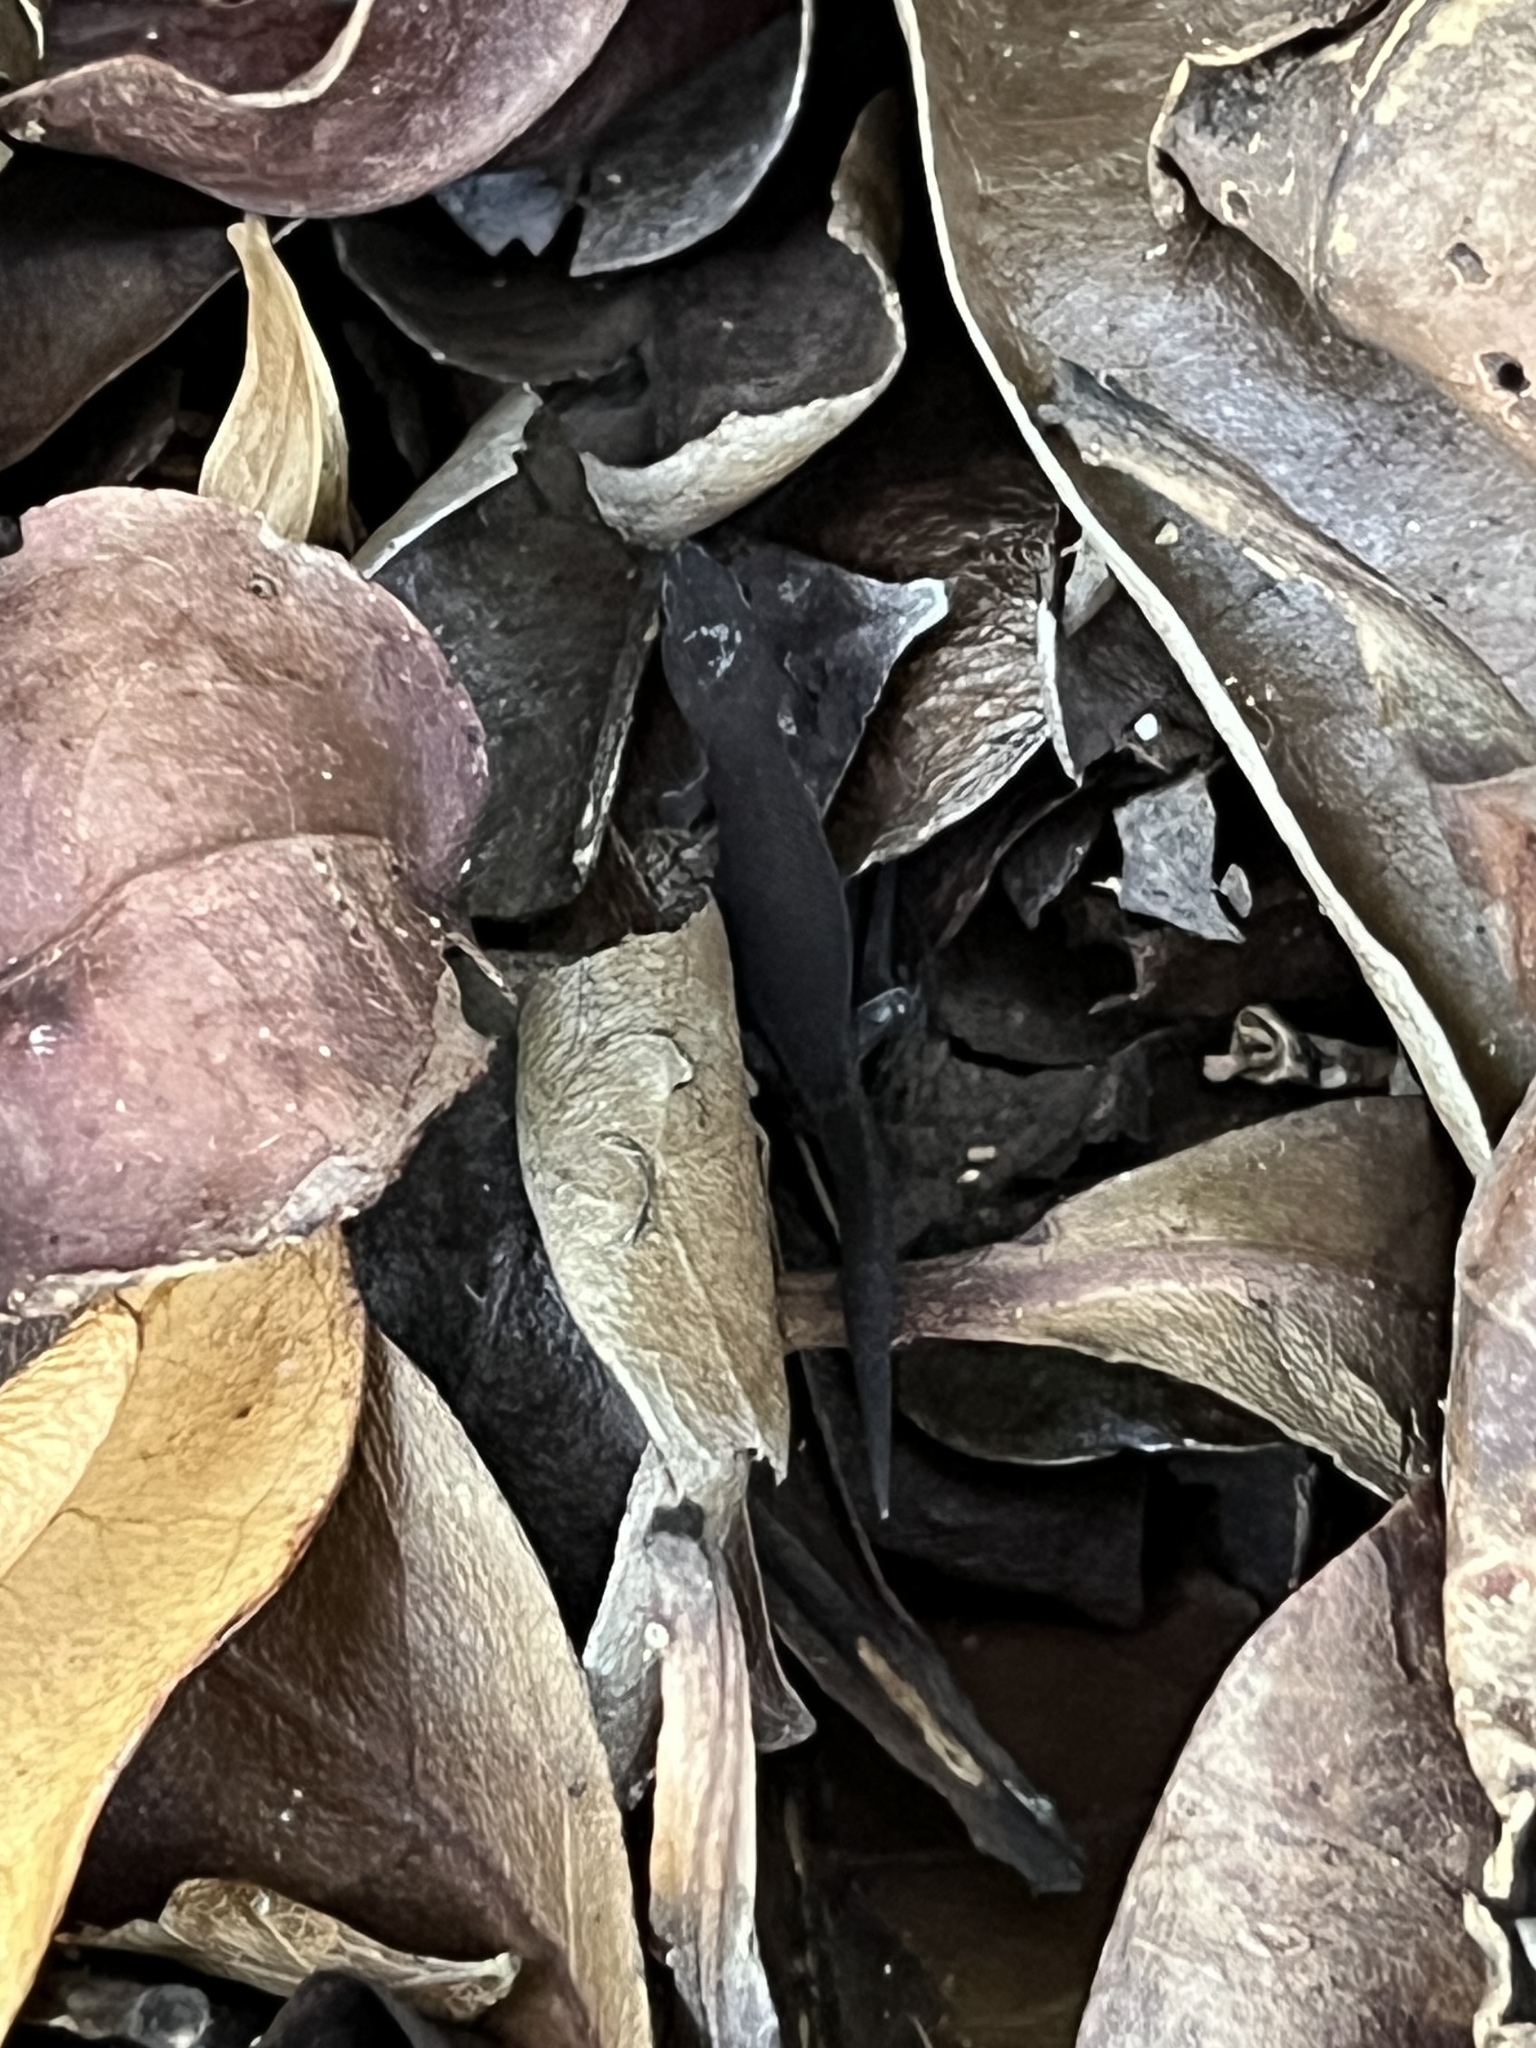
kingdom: Animalia
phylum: Chordata
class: Squamata
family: Sphaerodactylidae
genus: Sphaerodactylus
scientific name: Sphaerodactylus nicholsi
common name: Puerto rican crescent sphaero
